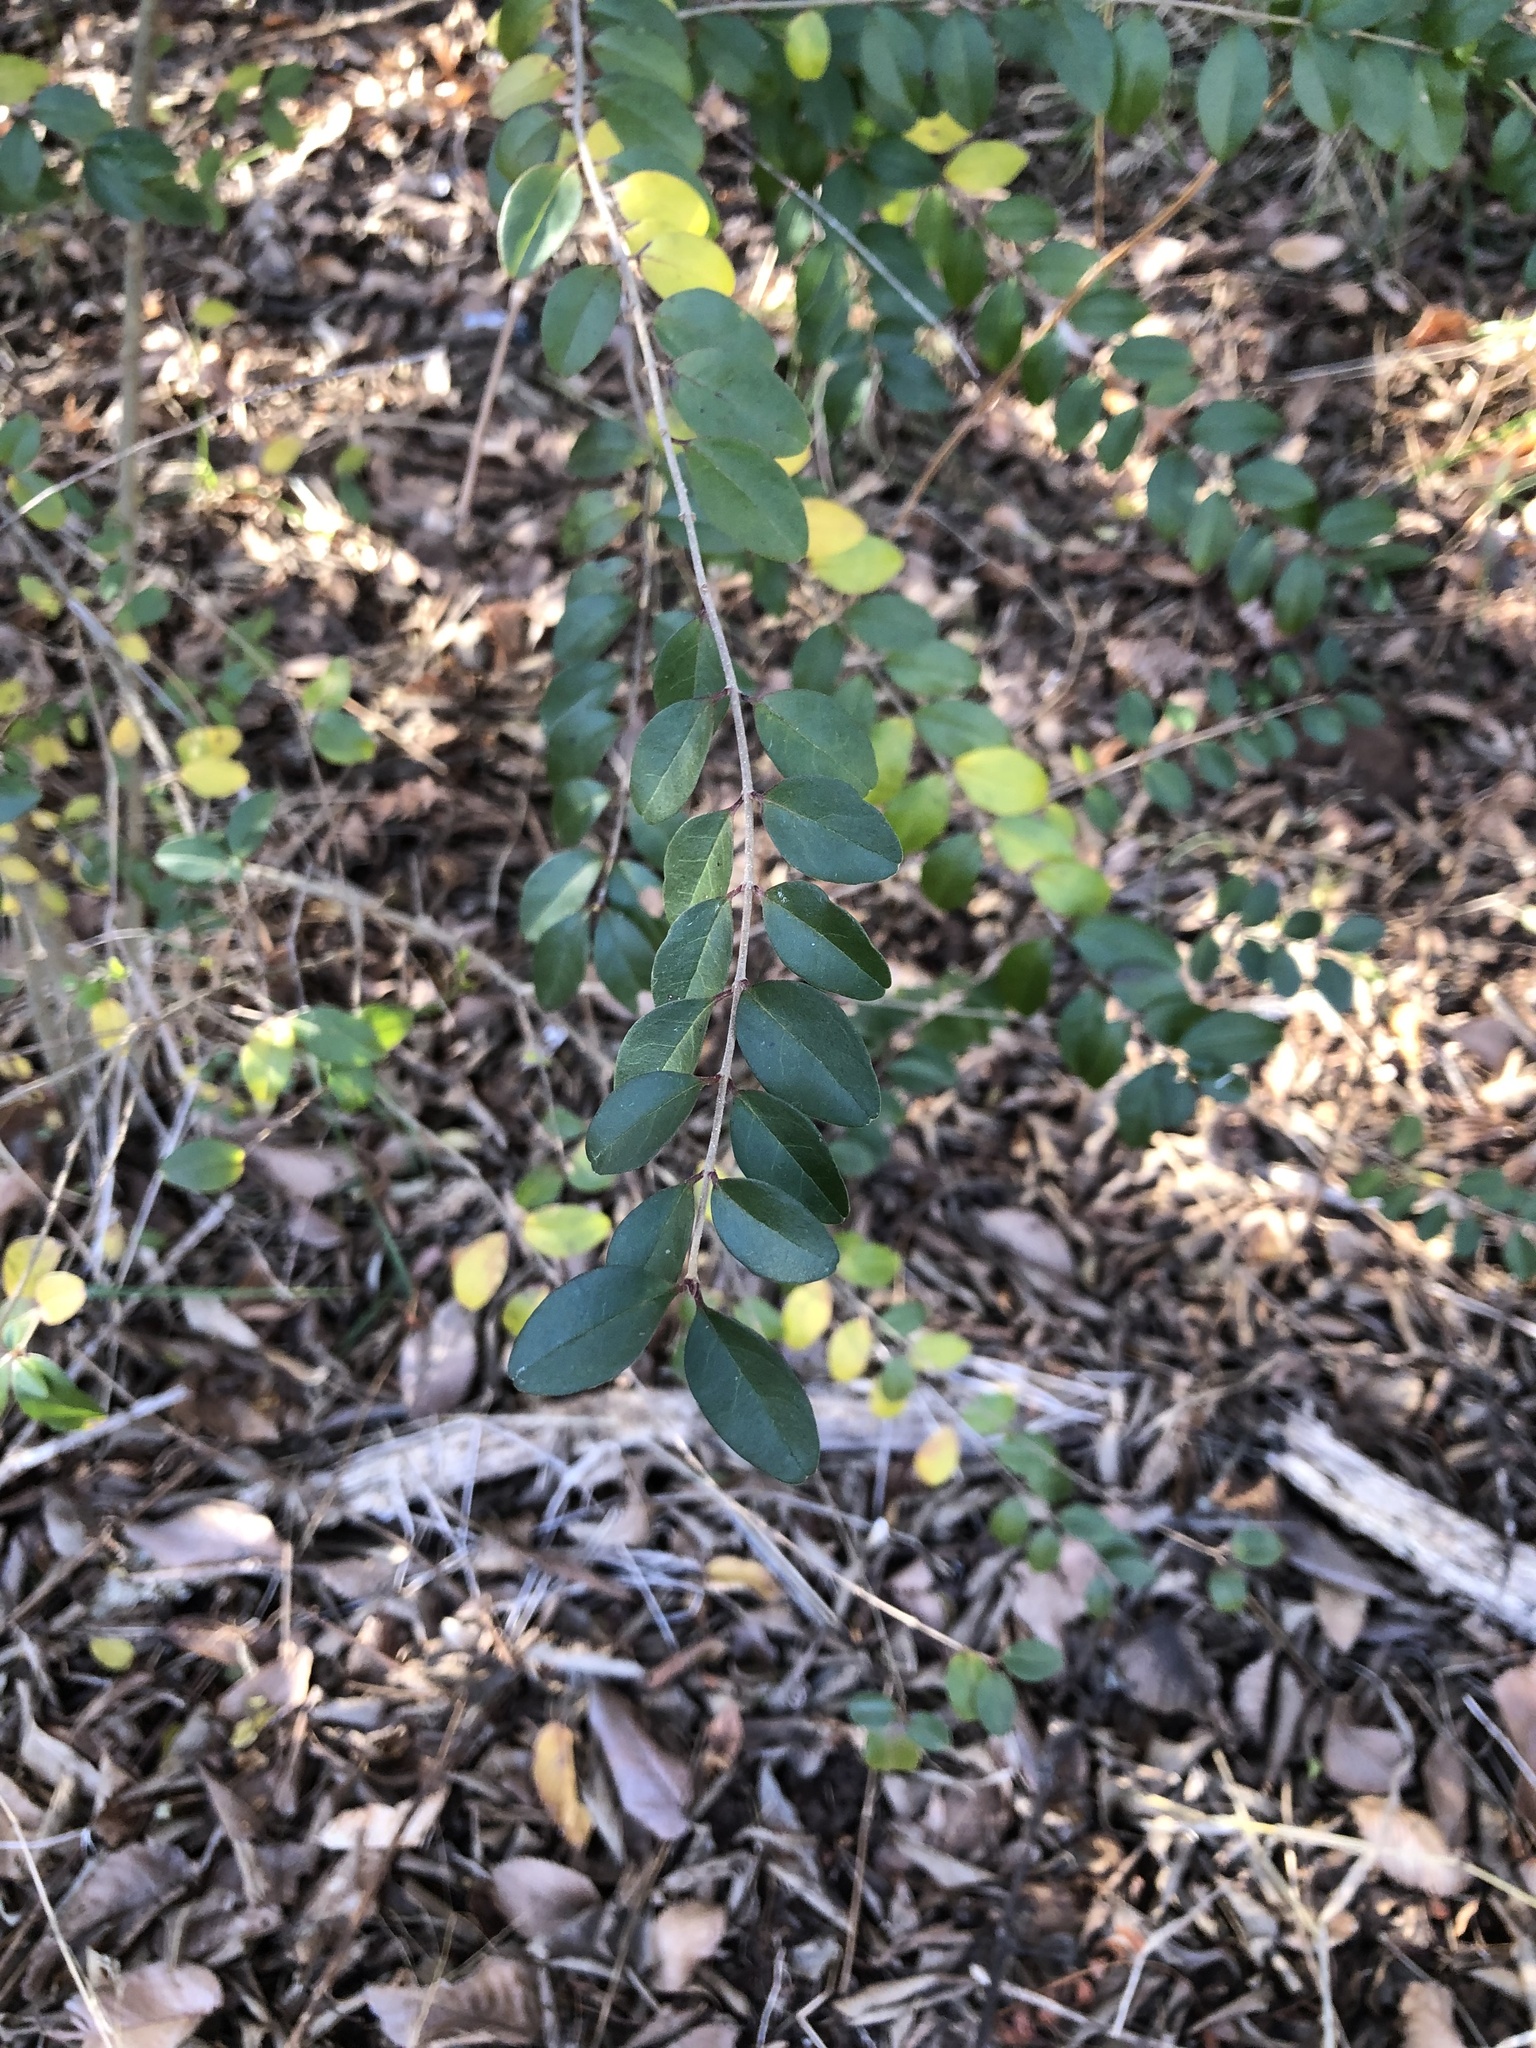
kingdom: Plantae
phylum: Tracheophyta
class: Magnoliopsida
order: Lamiales
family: Oleaceae
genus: Ligustrum
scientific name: Ligustrum sinense
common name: Chinese privet
